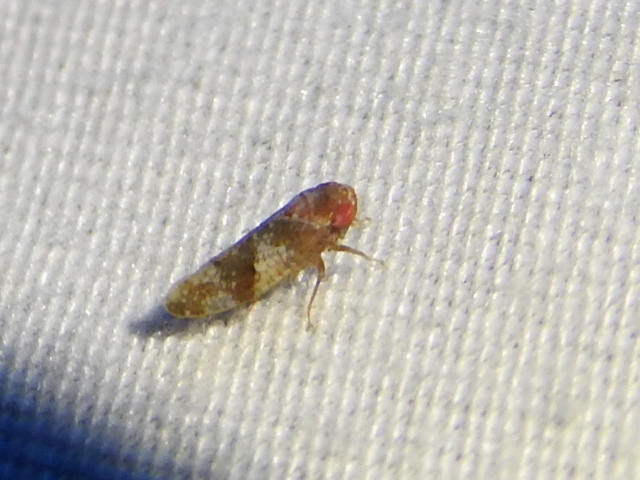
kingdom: Animalia
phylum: Arthropoda
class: Insecta
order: Hemiptera
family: Cicadellidae
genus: Norvellina
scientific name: Norvellina helenae
